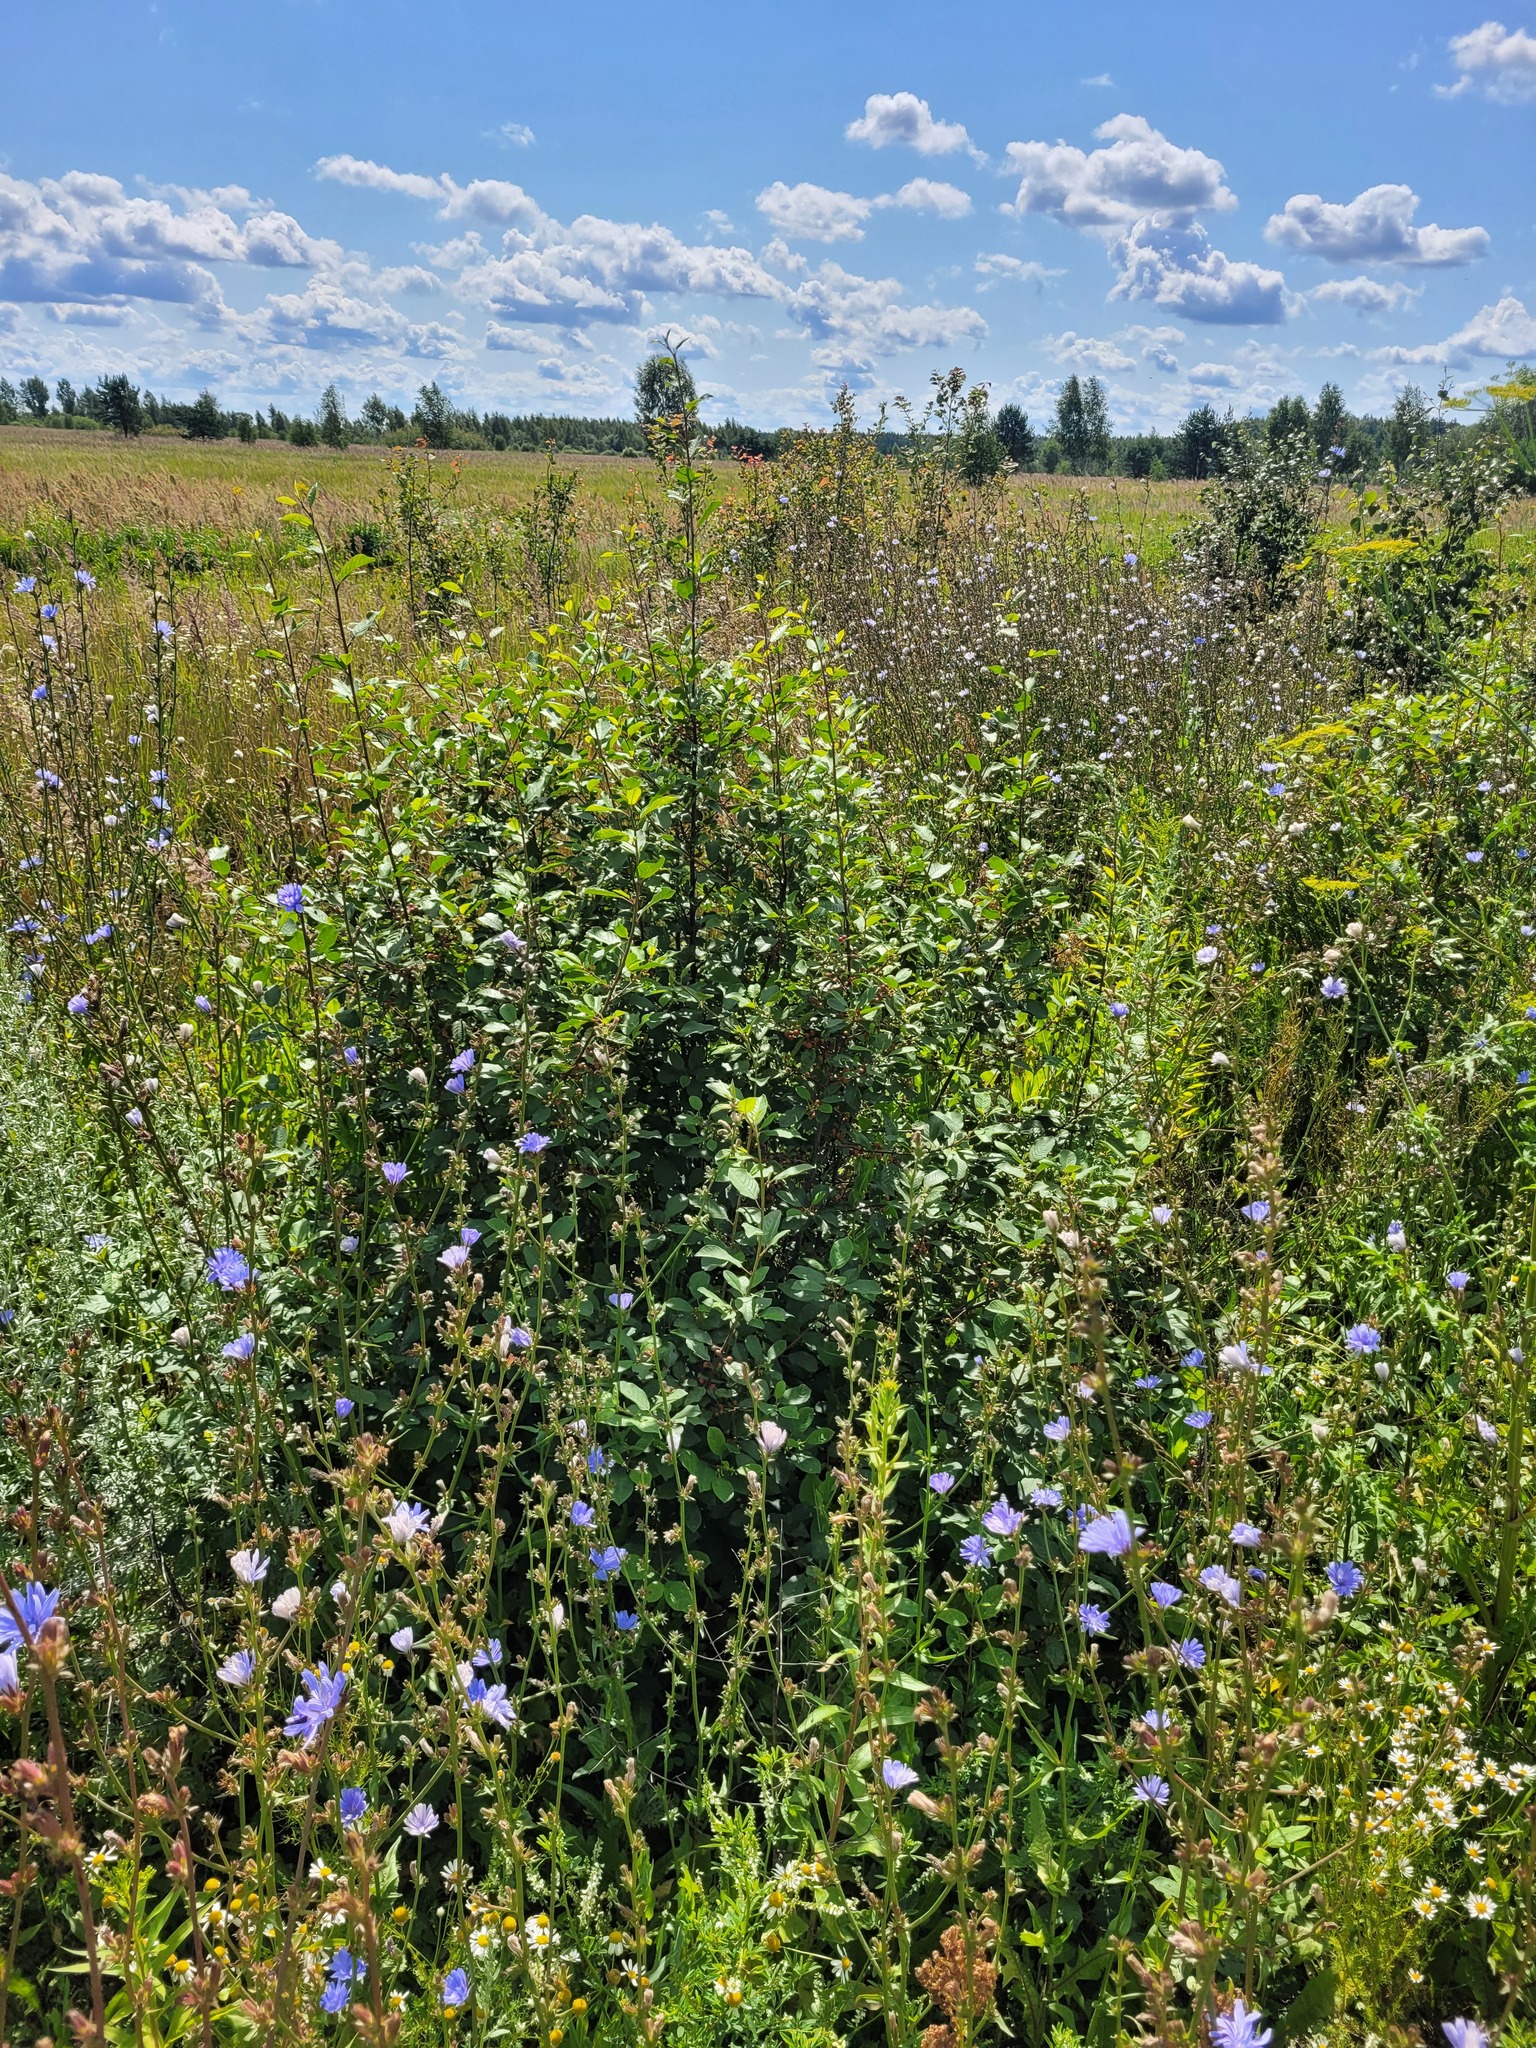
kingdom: Plantae
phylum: Tracheophyta
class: Magnoliopsida
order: Rosales
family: Rhamnaceae
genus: Frangula
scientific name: Frangula alnus
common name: Alder buckthorn
